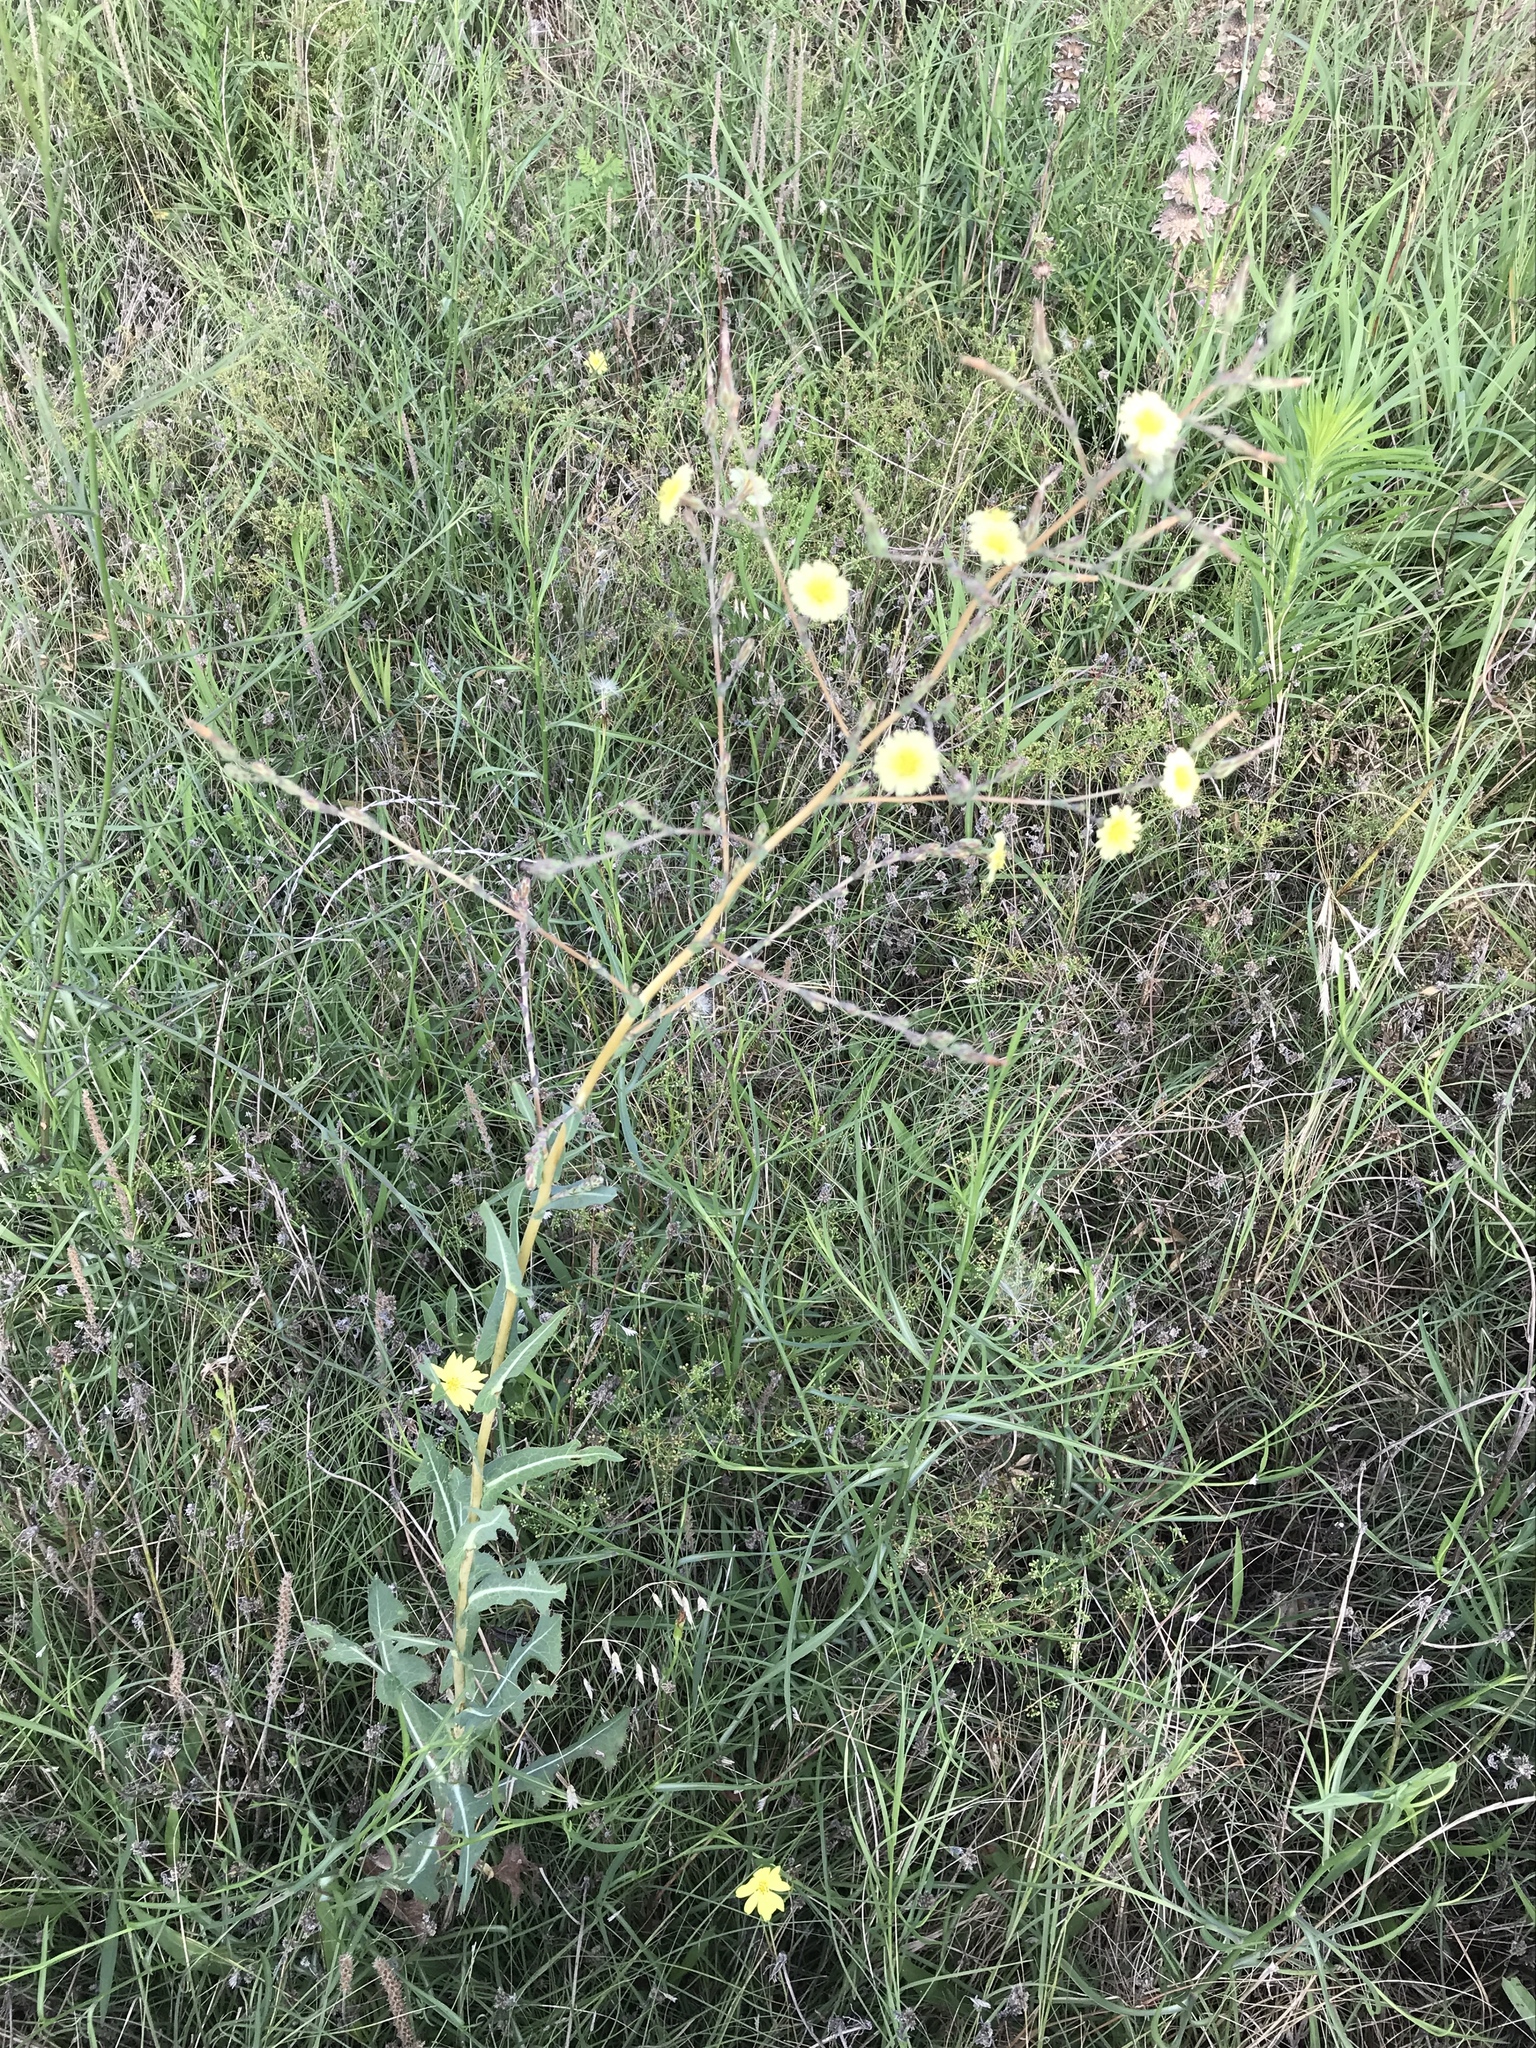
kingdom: Plantae
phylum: Tracheophyta
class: Magnoliopsida
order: Asterales
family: Asteraceae
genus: Lactuca
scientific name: Lactuca serriola
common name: Prickly lettuce
